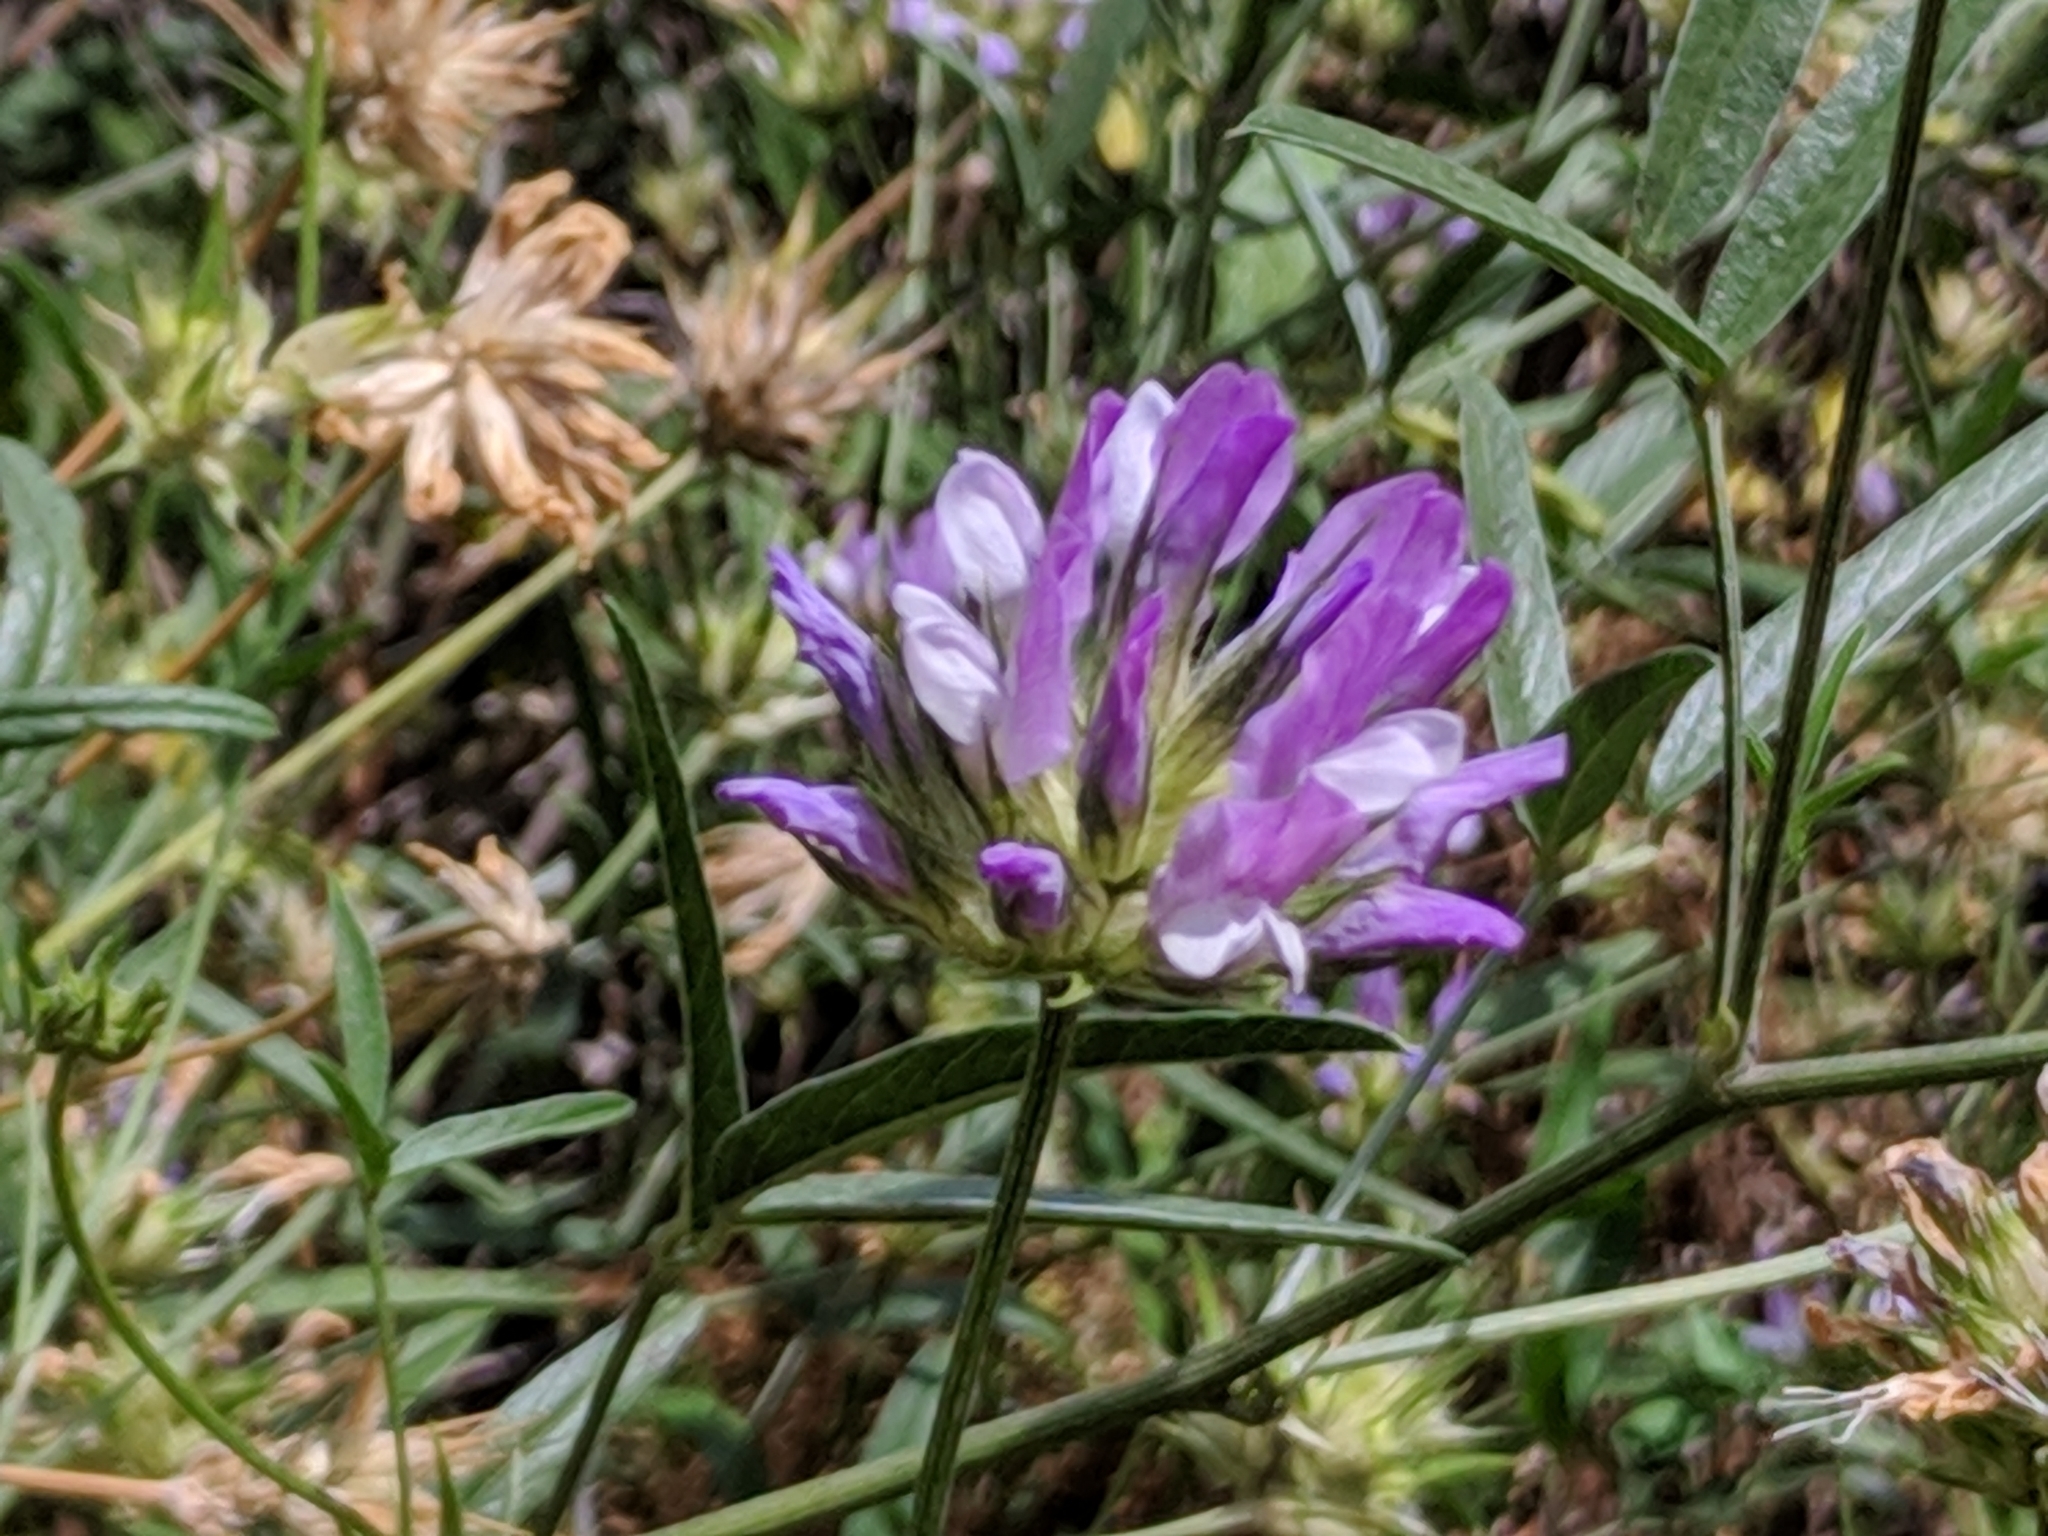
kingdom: Plantae
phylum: Tracheophyta
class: Magnoliopsida
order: Fabales
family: Fabaceae
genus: Bituminaria
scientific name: Bituminaria bituminosa
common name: Arabian pea
